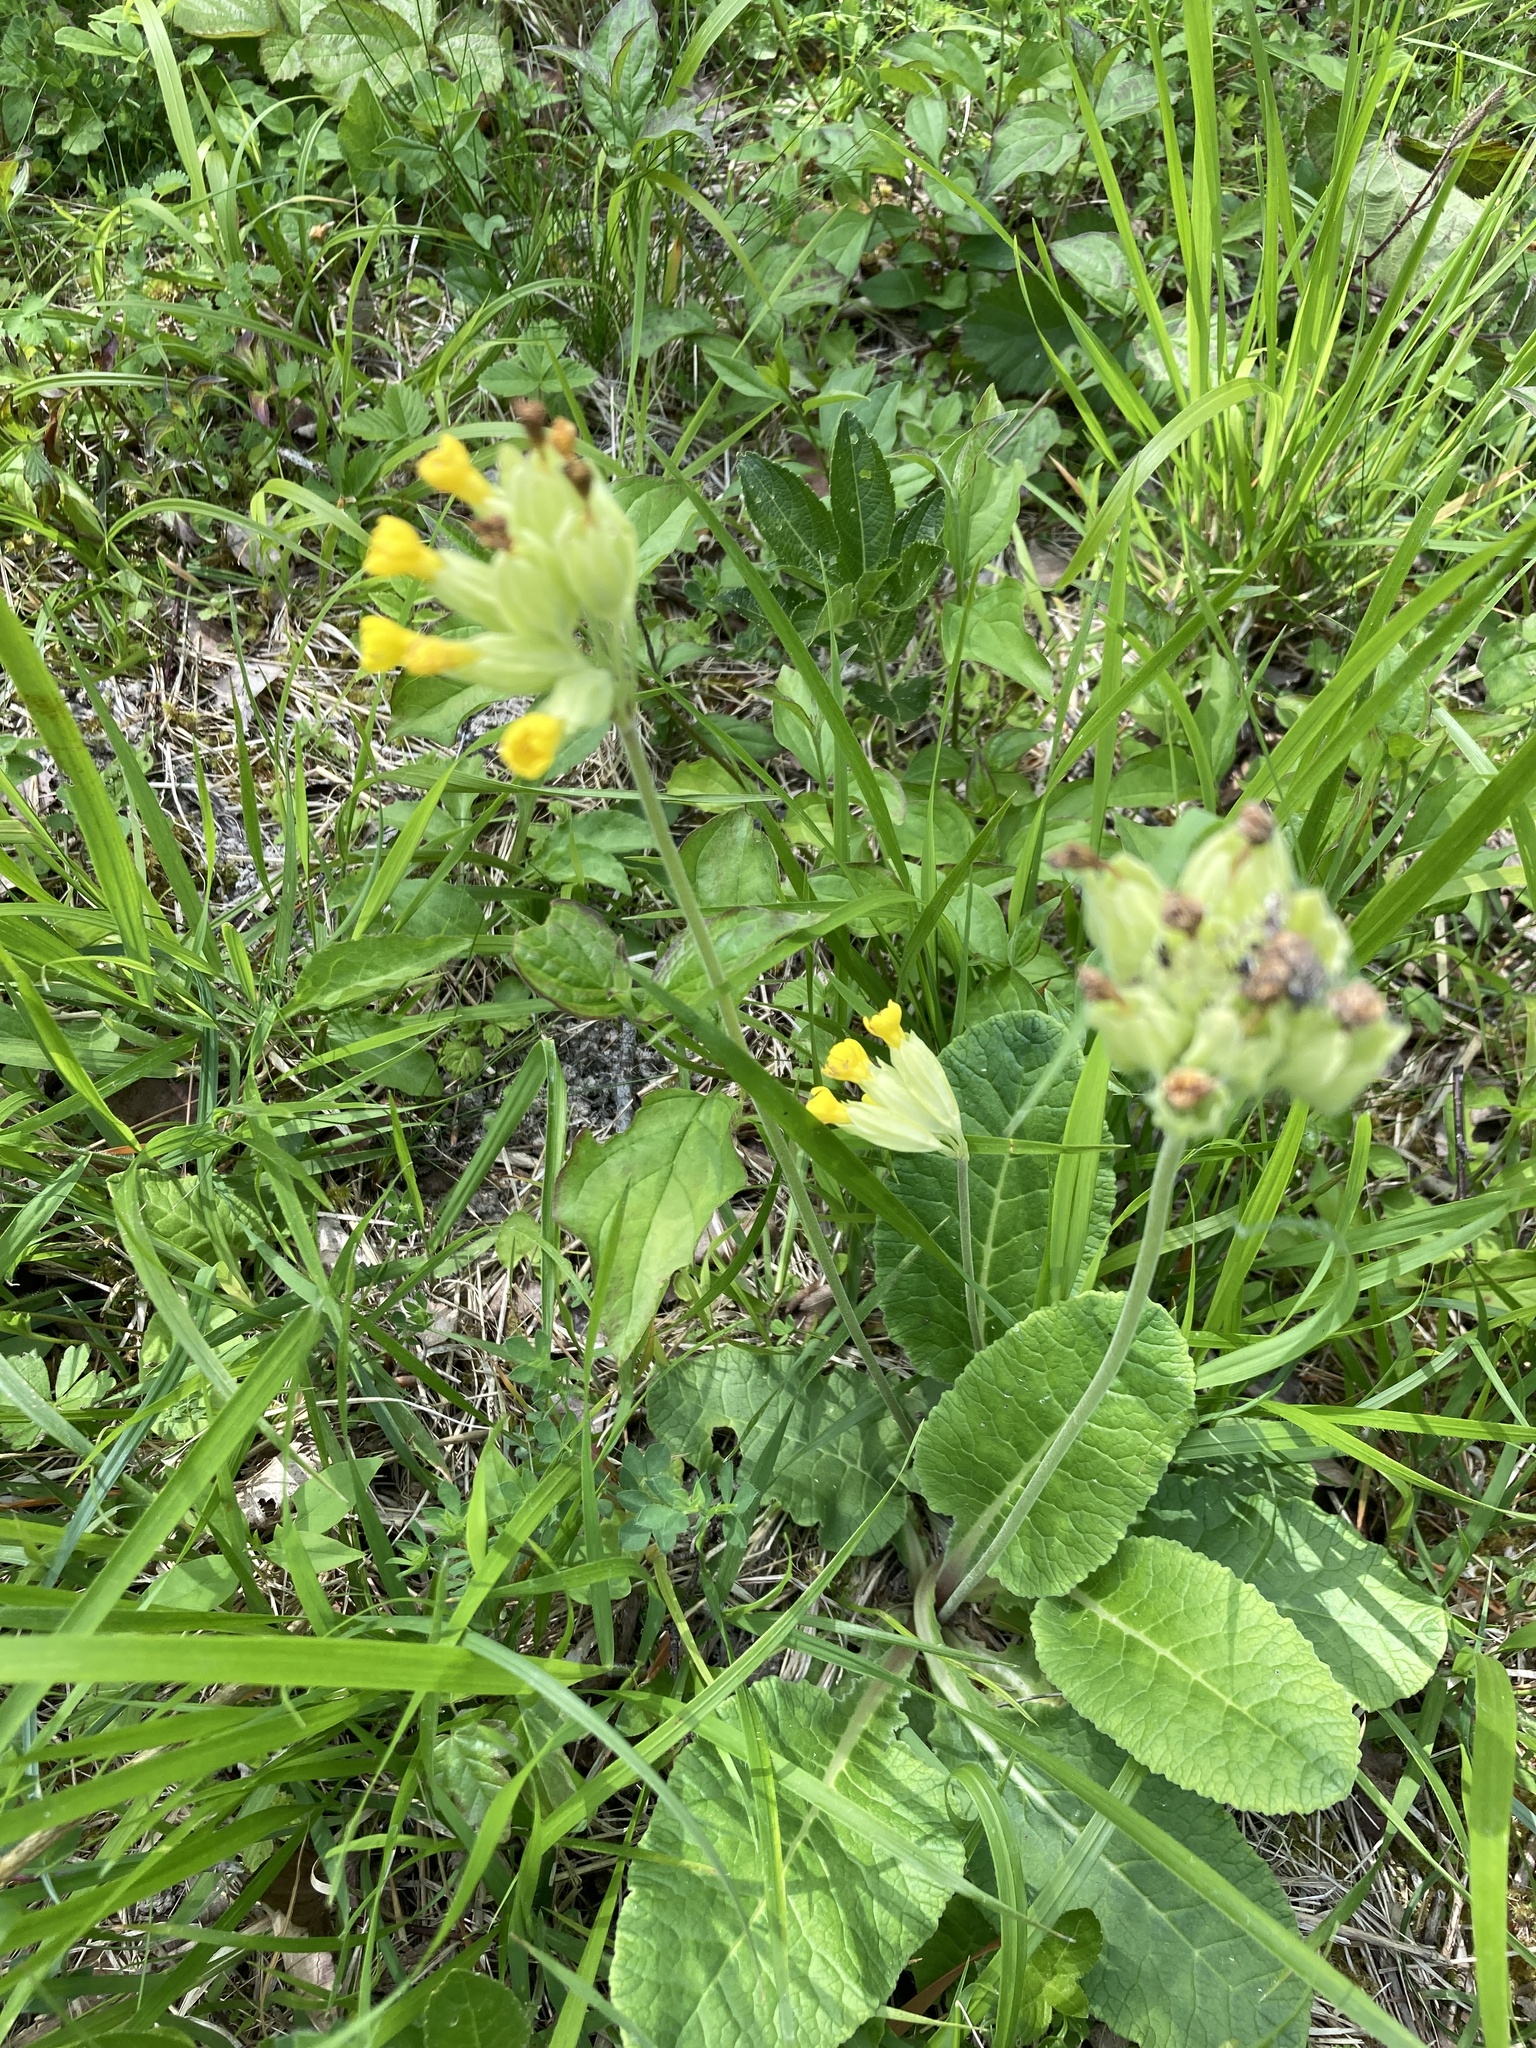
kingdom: Plantae
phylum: Tracheophyta
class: Magnoliopsida
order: Ericales
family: Primulaceae
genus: Primula
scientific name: Primula veris
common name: Cowslip
